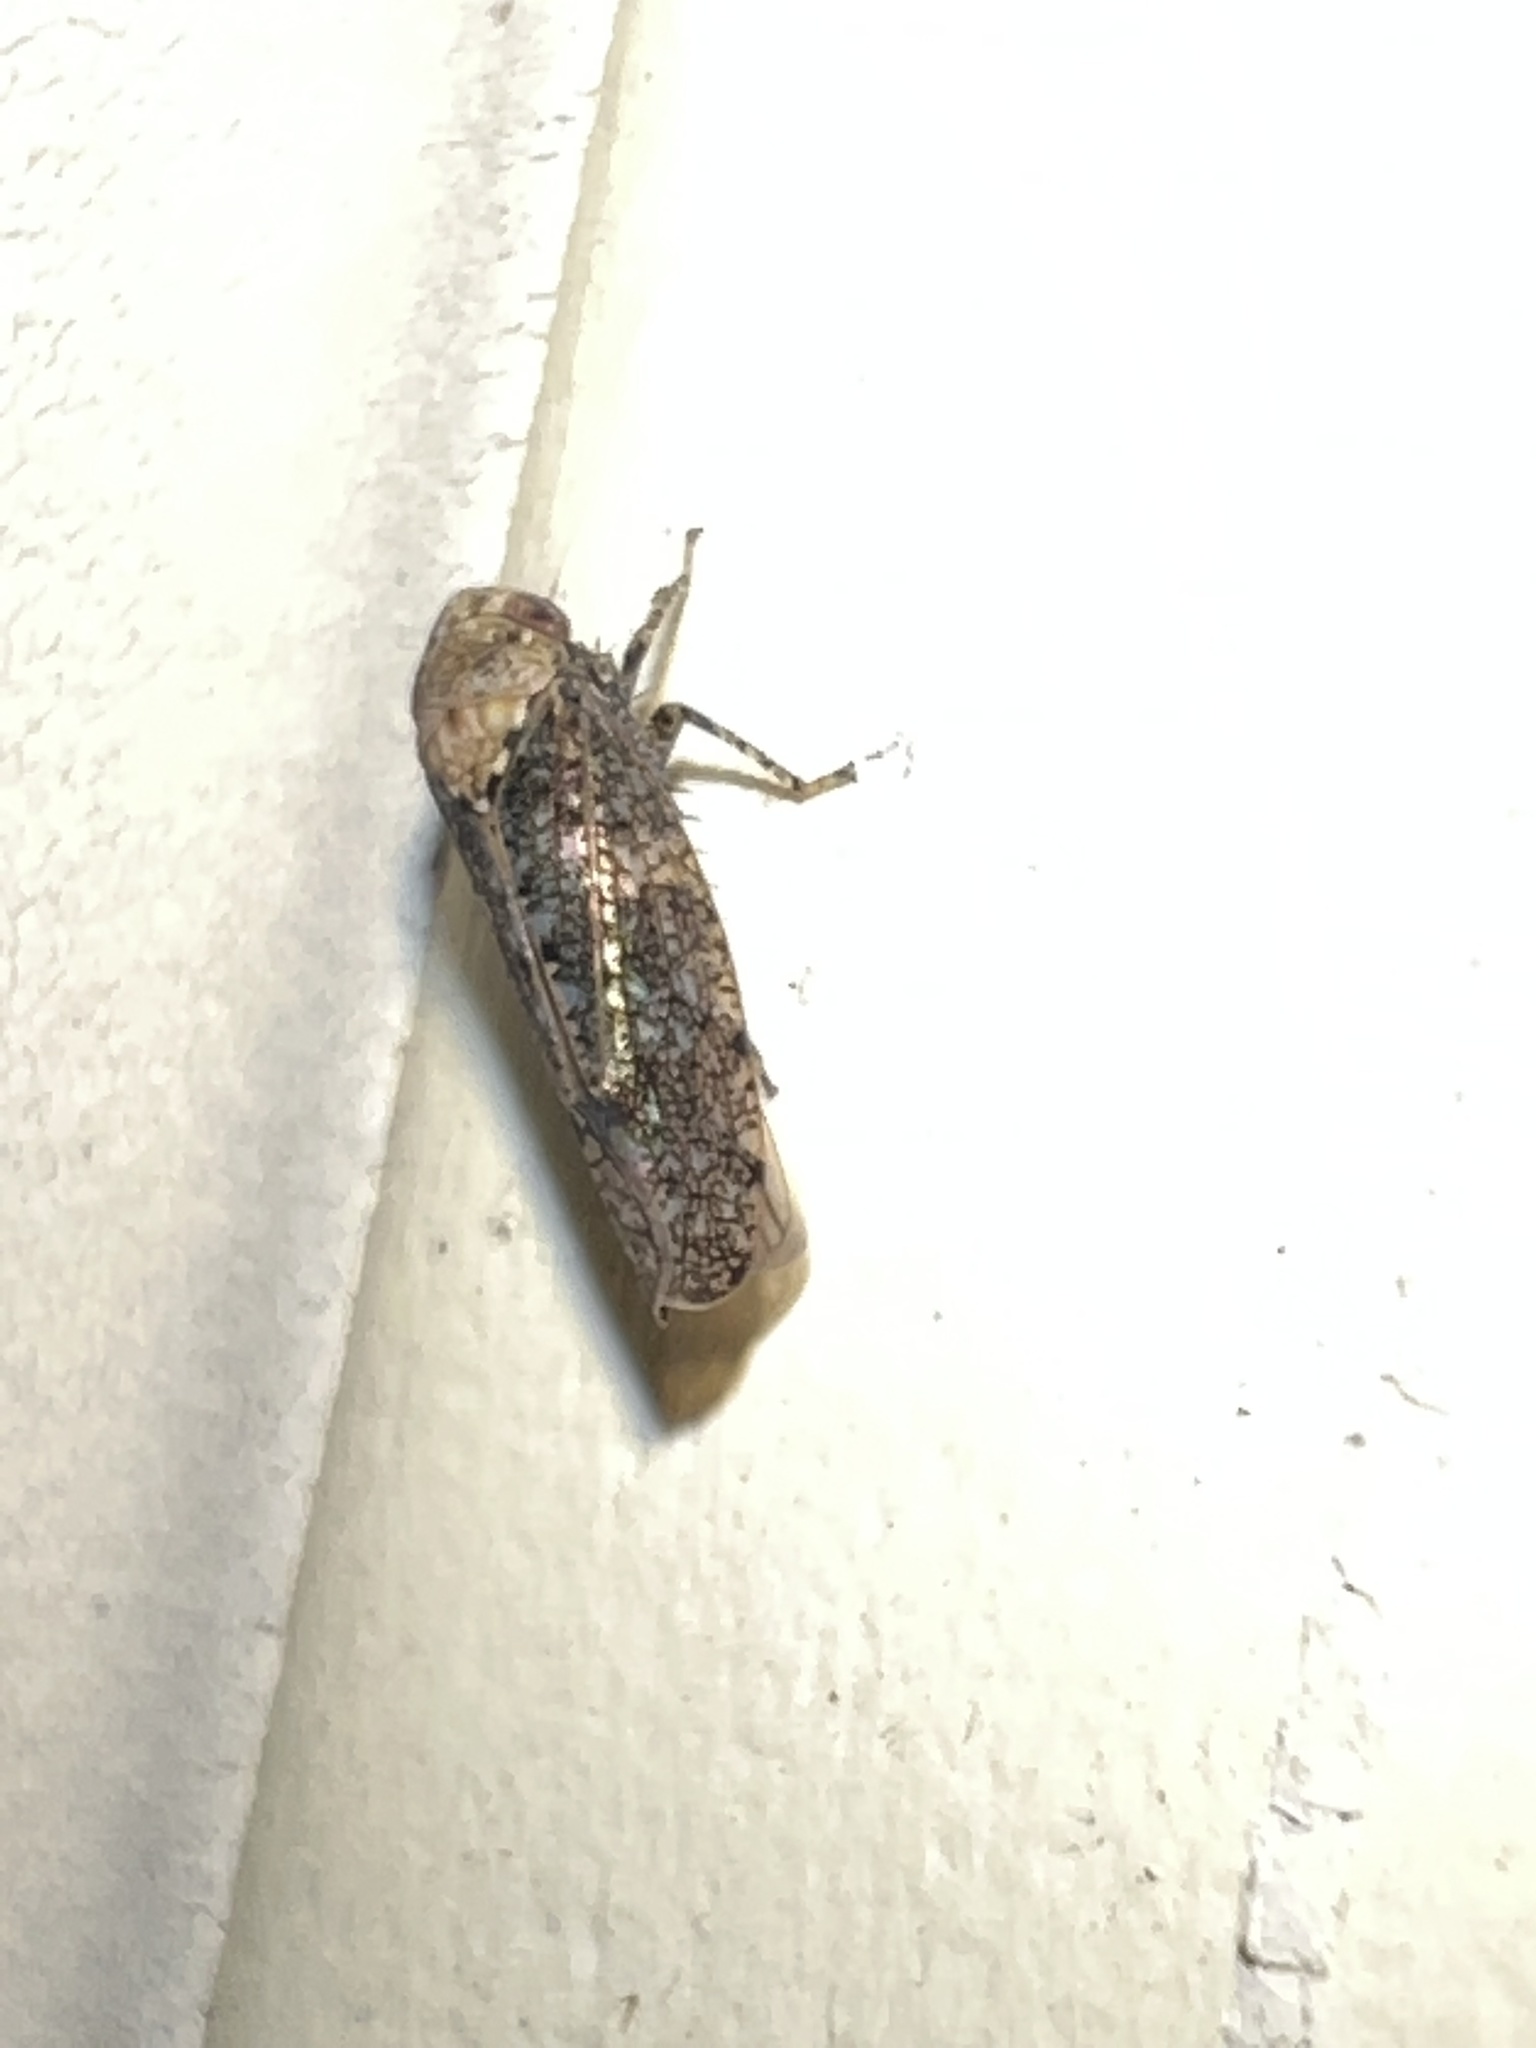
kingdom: Animalia
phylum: Arthropoda
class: Insecta
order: Hemiptera
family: Cicadellidae
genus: Paraphlepsius
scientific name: Paraphlepsius collitus
